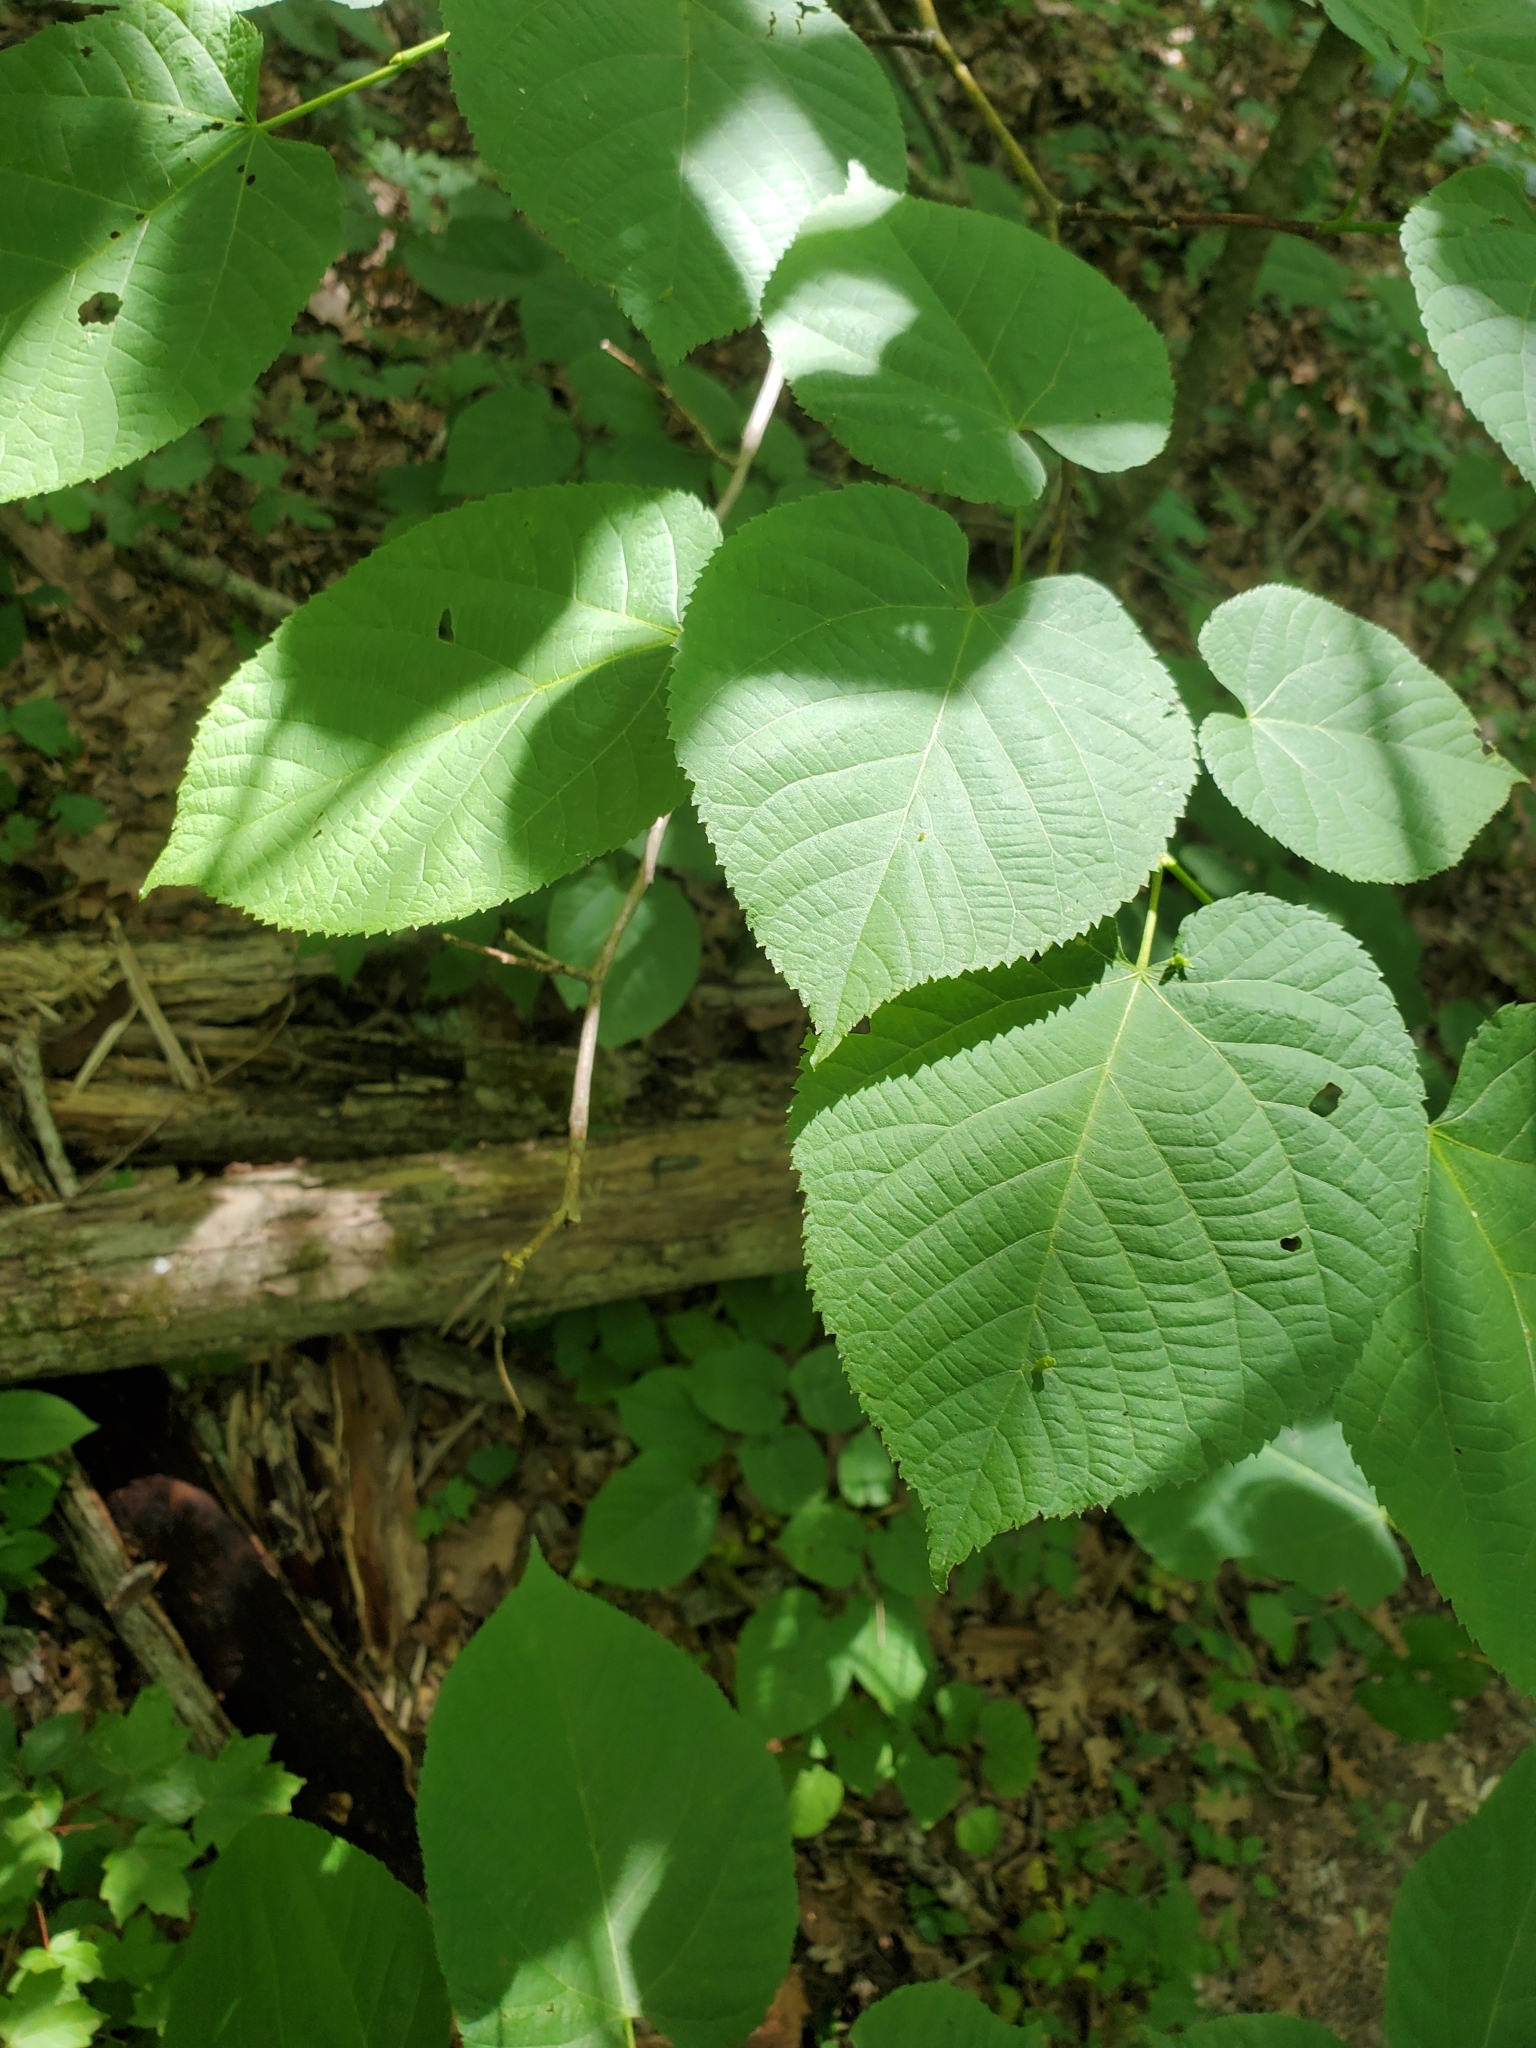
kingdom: Plantae
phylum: Tracheophyta
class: Magnoliopsida
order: Malvales
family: Malvaceae
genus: Tilia
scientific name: Tilia americana
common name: Basswood
